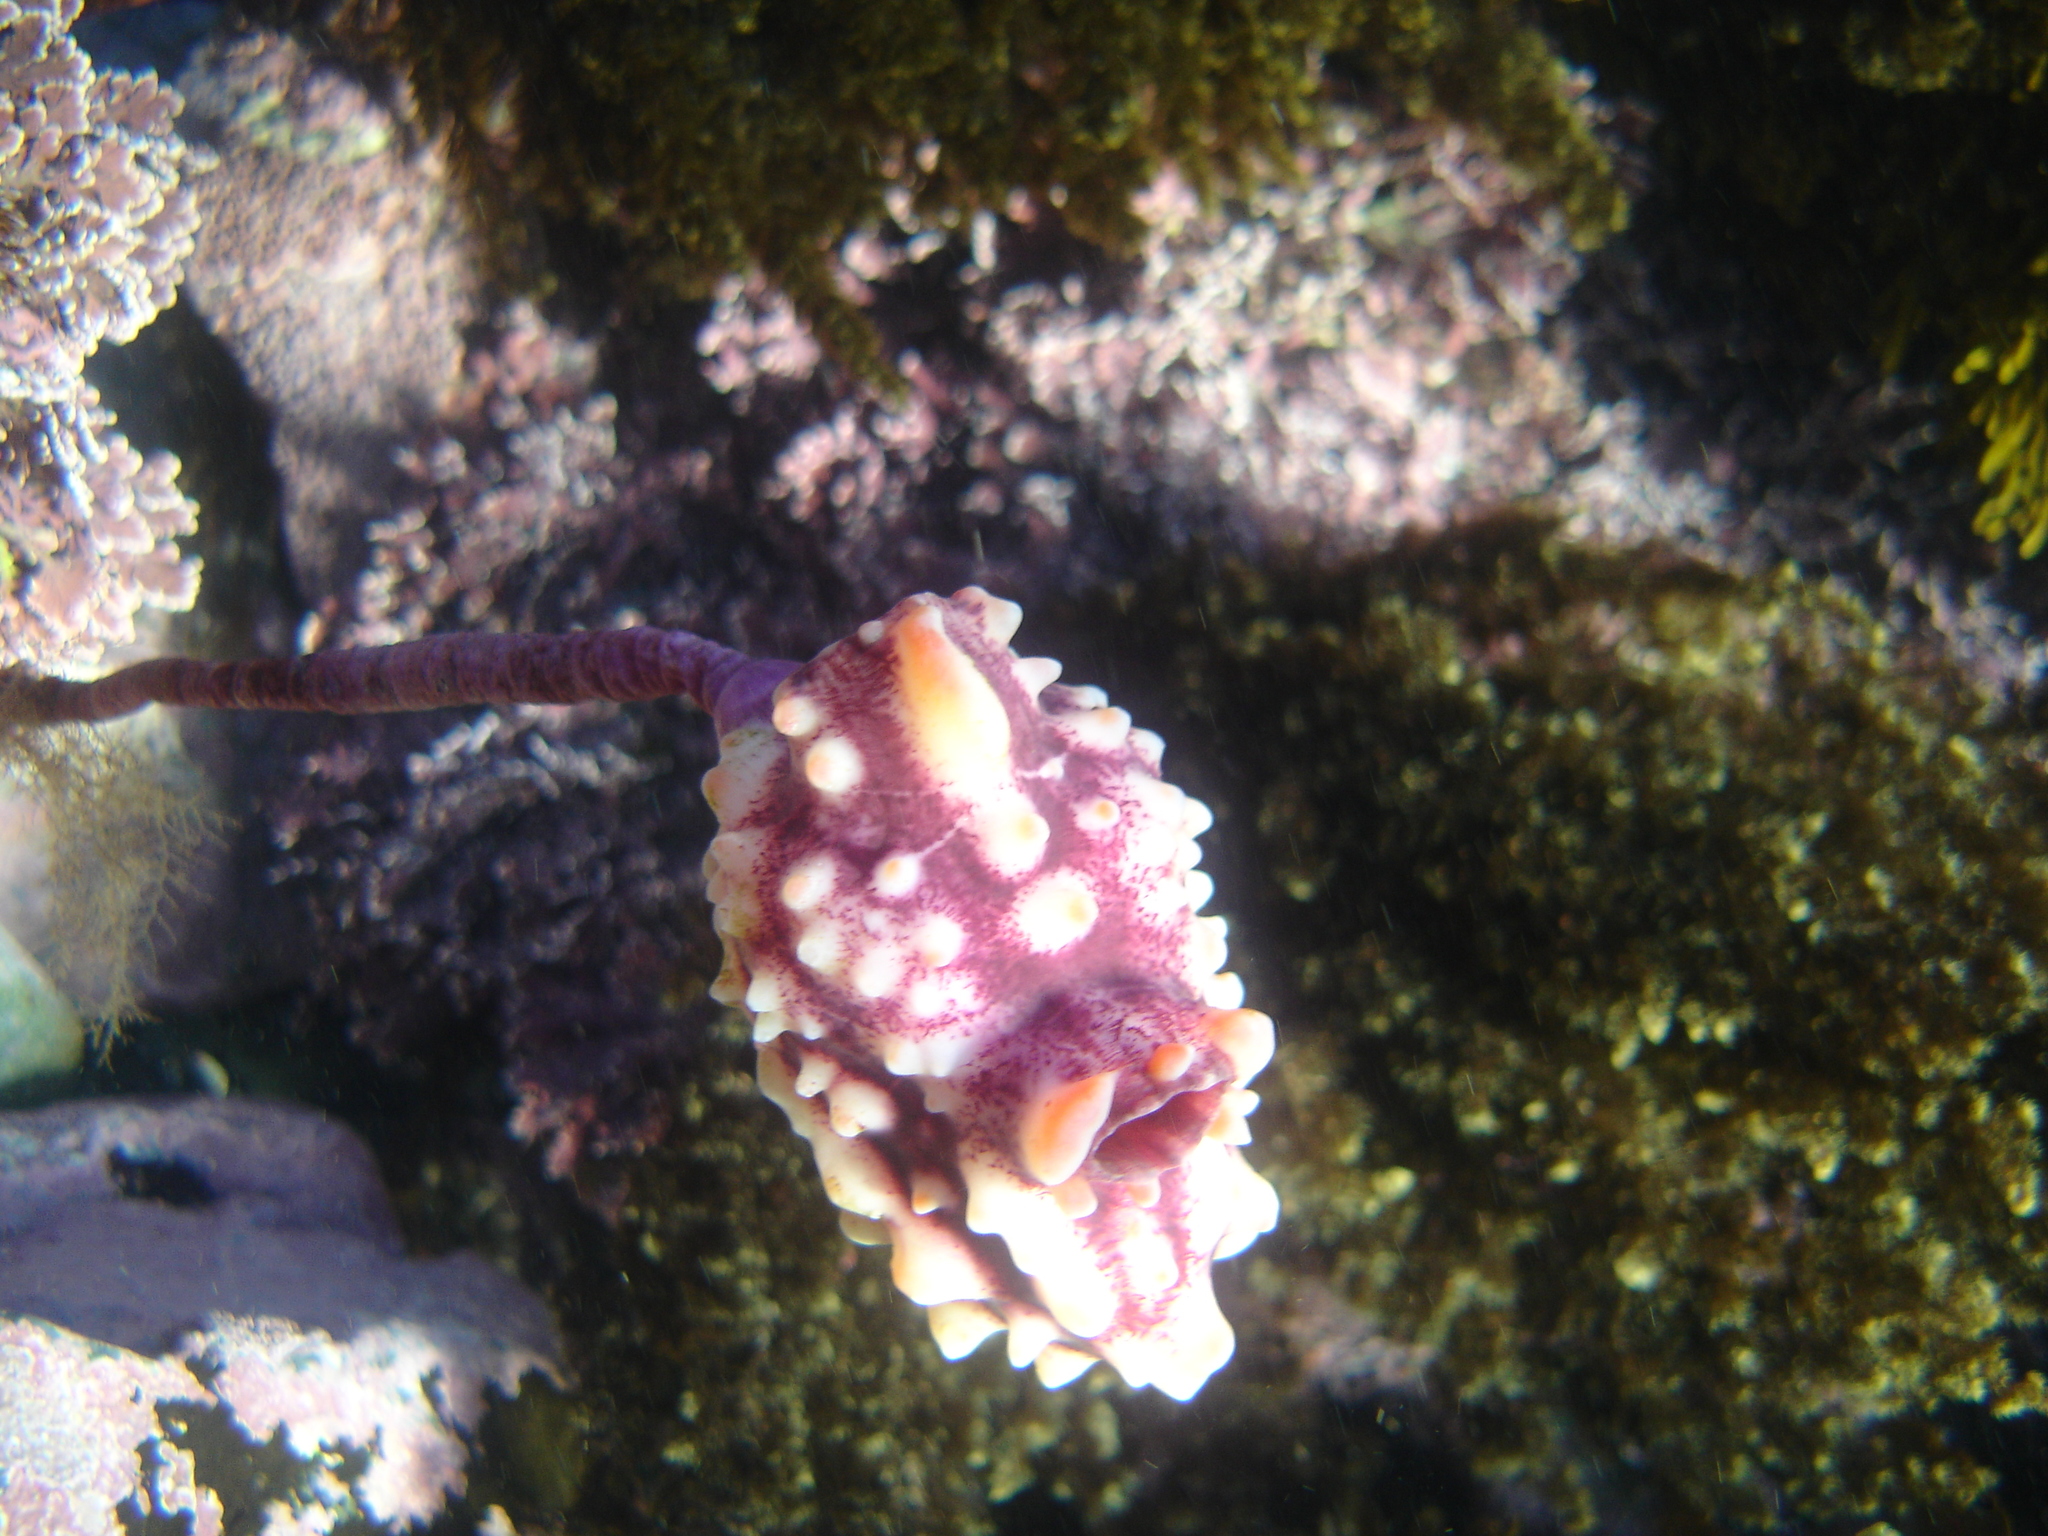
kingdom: Animalia
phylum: Chordata
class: Ascidiacea
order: Stolidobranchia
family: Pyuridae
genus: Pyura
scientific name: Pyura pachydermatina
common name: Sea tulip
